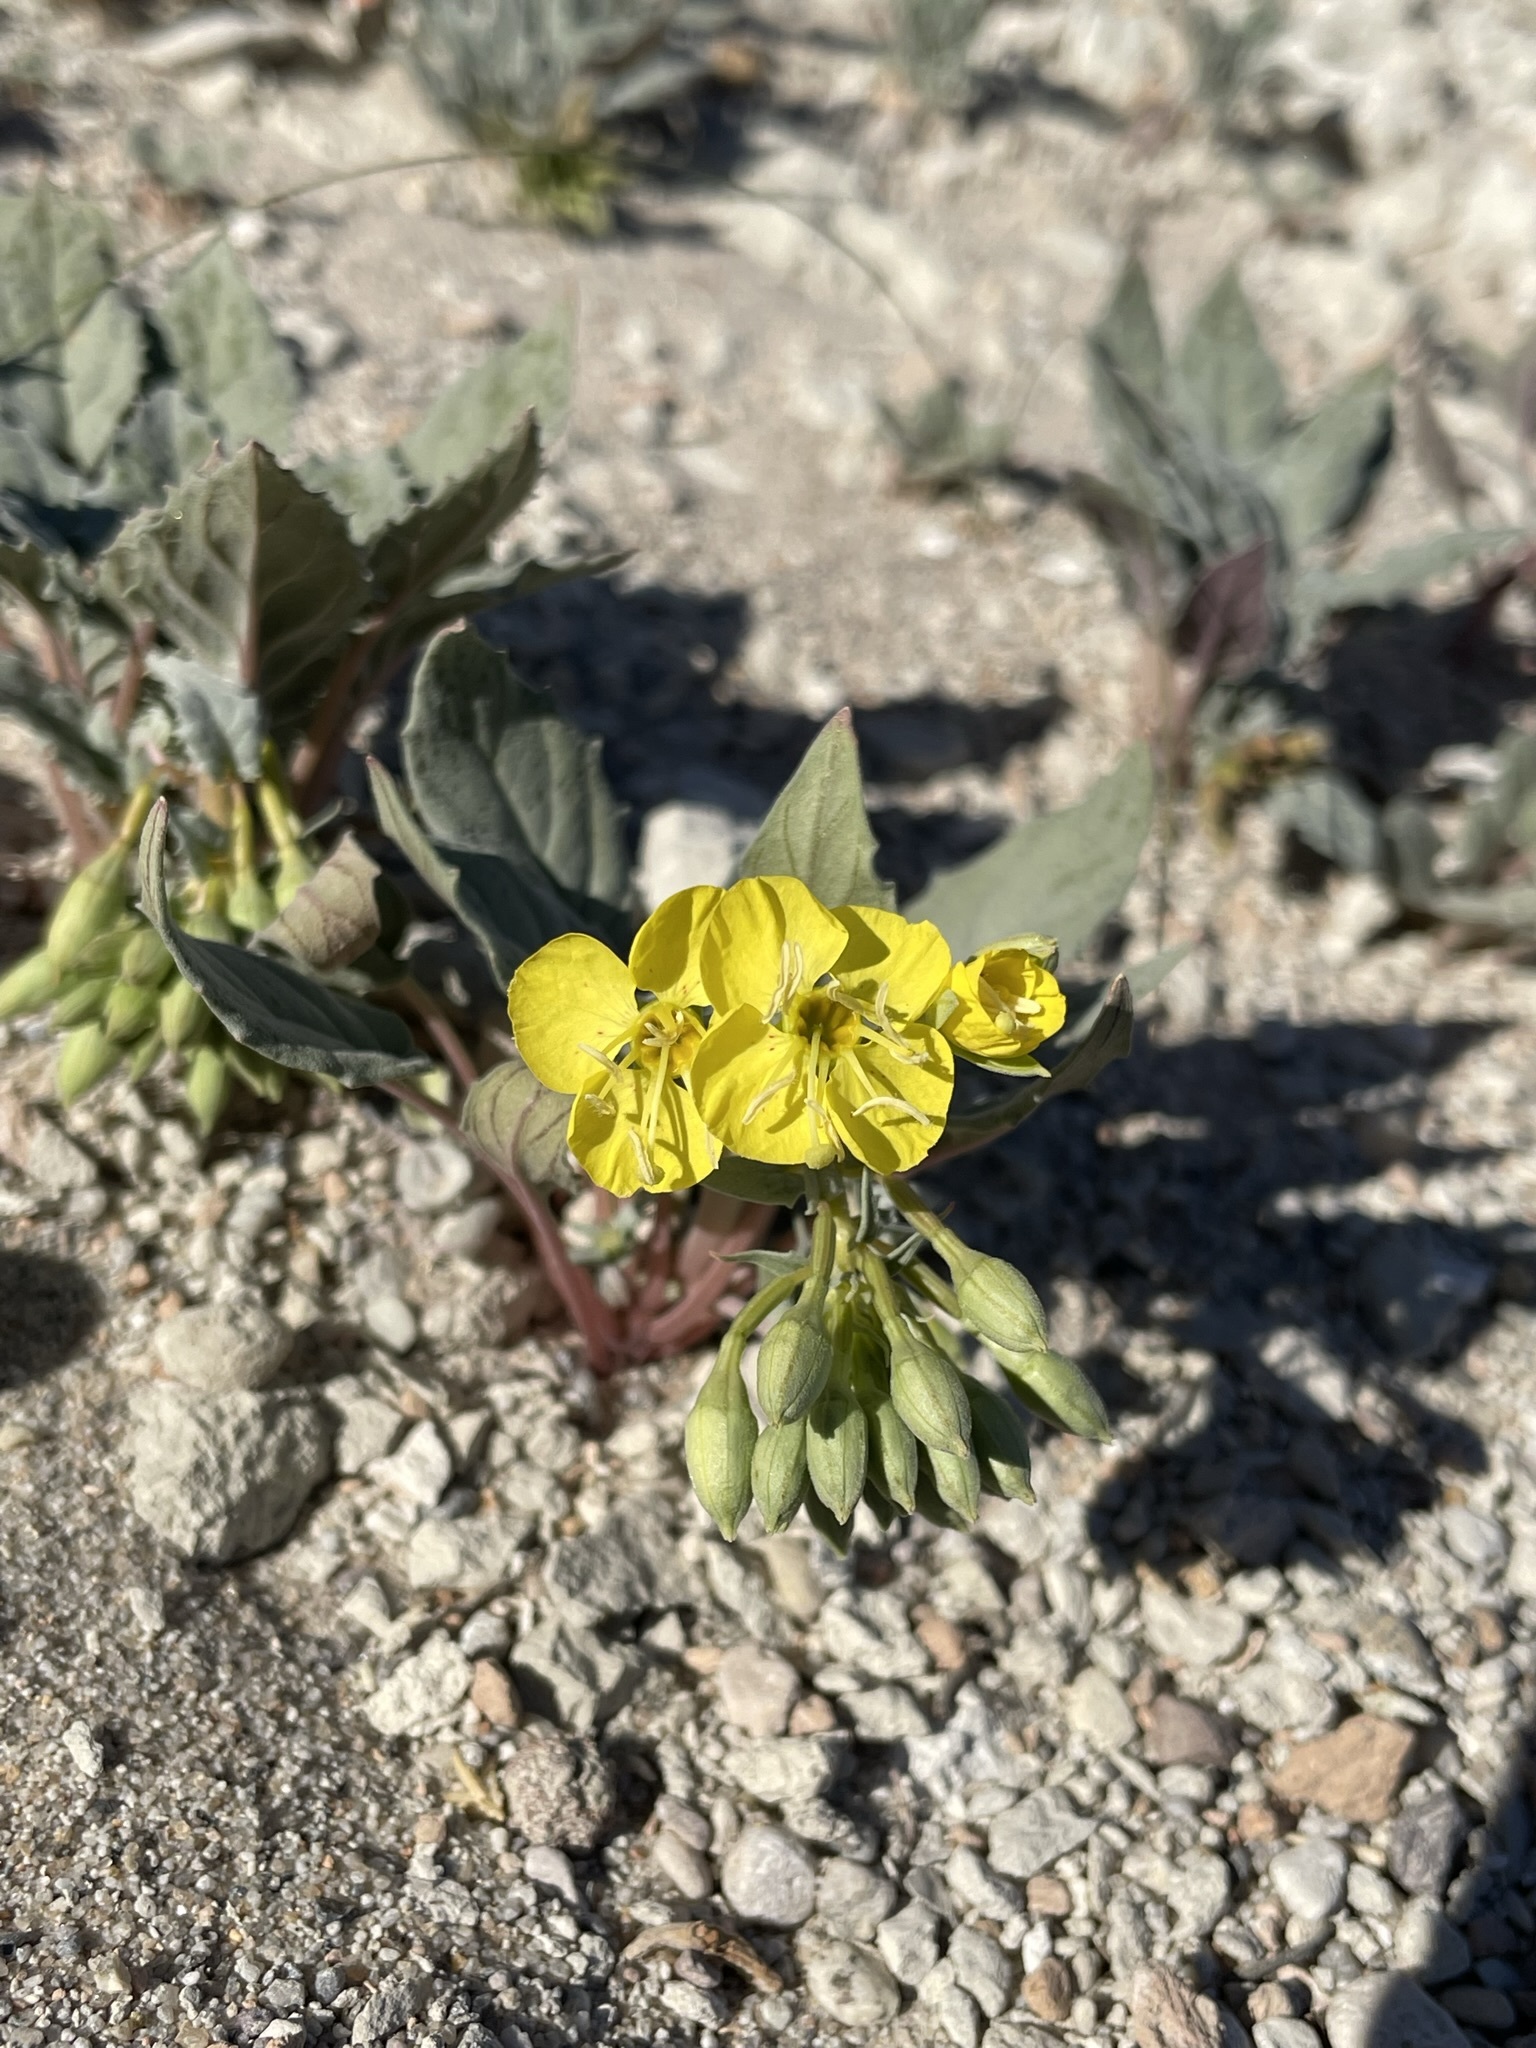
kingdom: Plantae
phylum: Tracheophyta
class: Magnoliopsida
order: Myrtales
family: Onagraceae
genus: Chylismia
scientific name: Chylismia claviformis
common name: Browneyes
